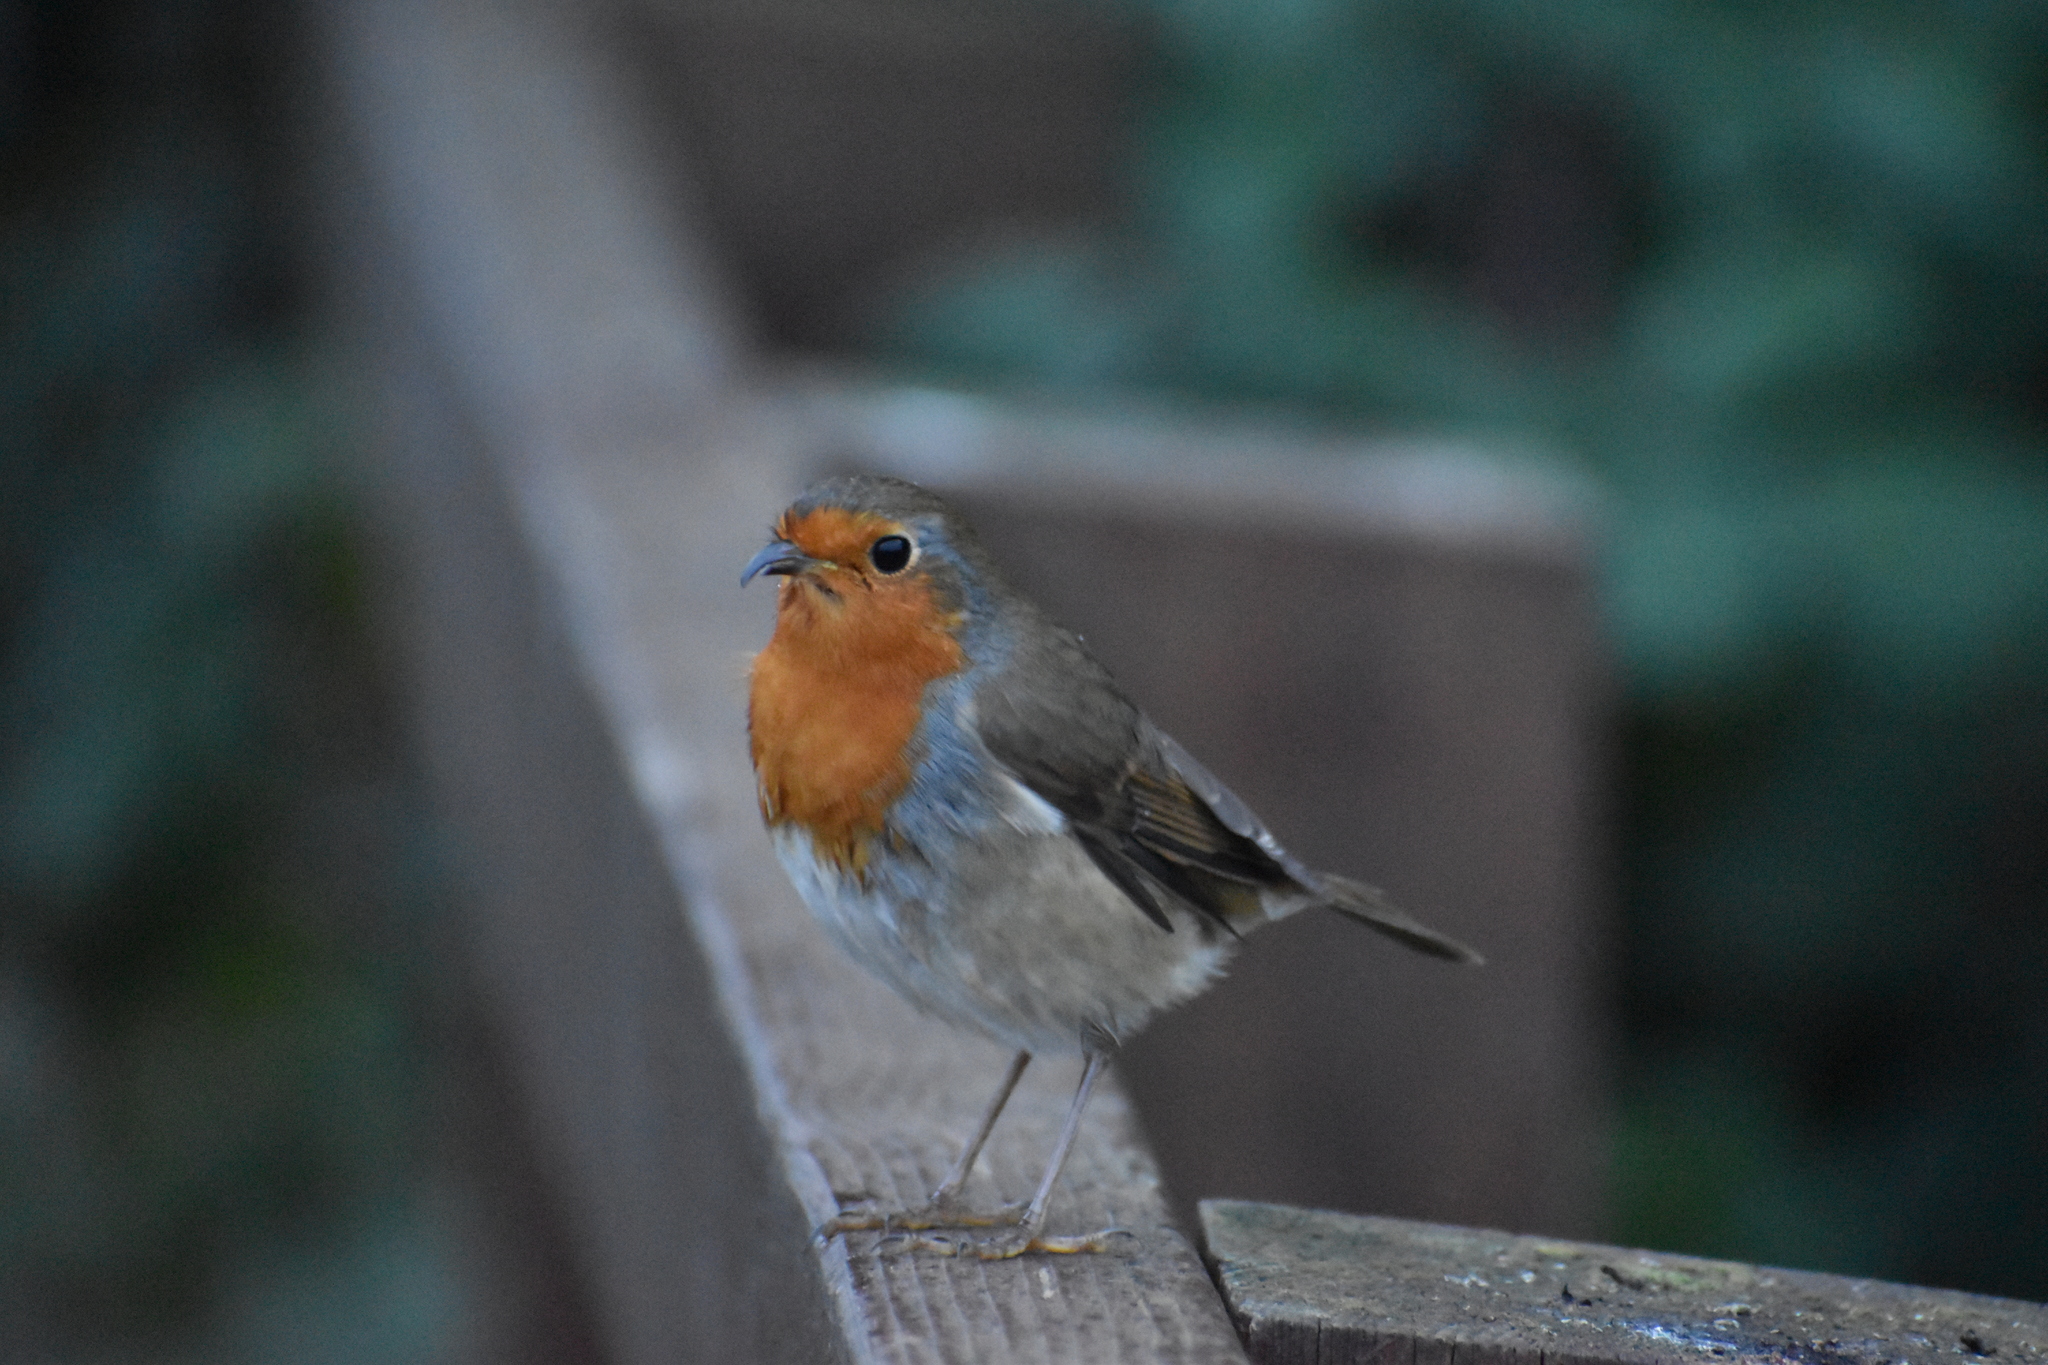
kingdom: Animalia
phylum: Chordata
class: Aves
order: Passeriformes
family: Muscicapidae
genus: Erithacus
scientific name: Erithacus rubecula
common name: European robin
